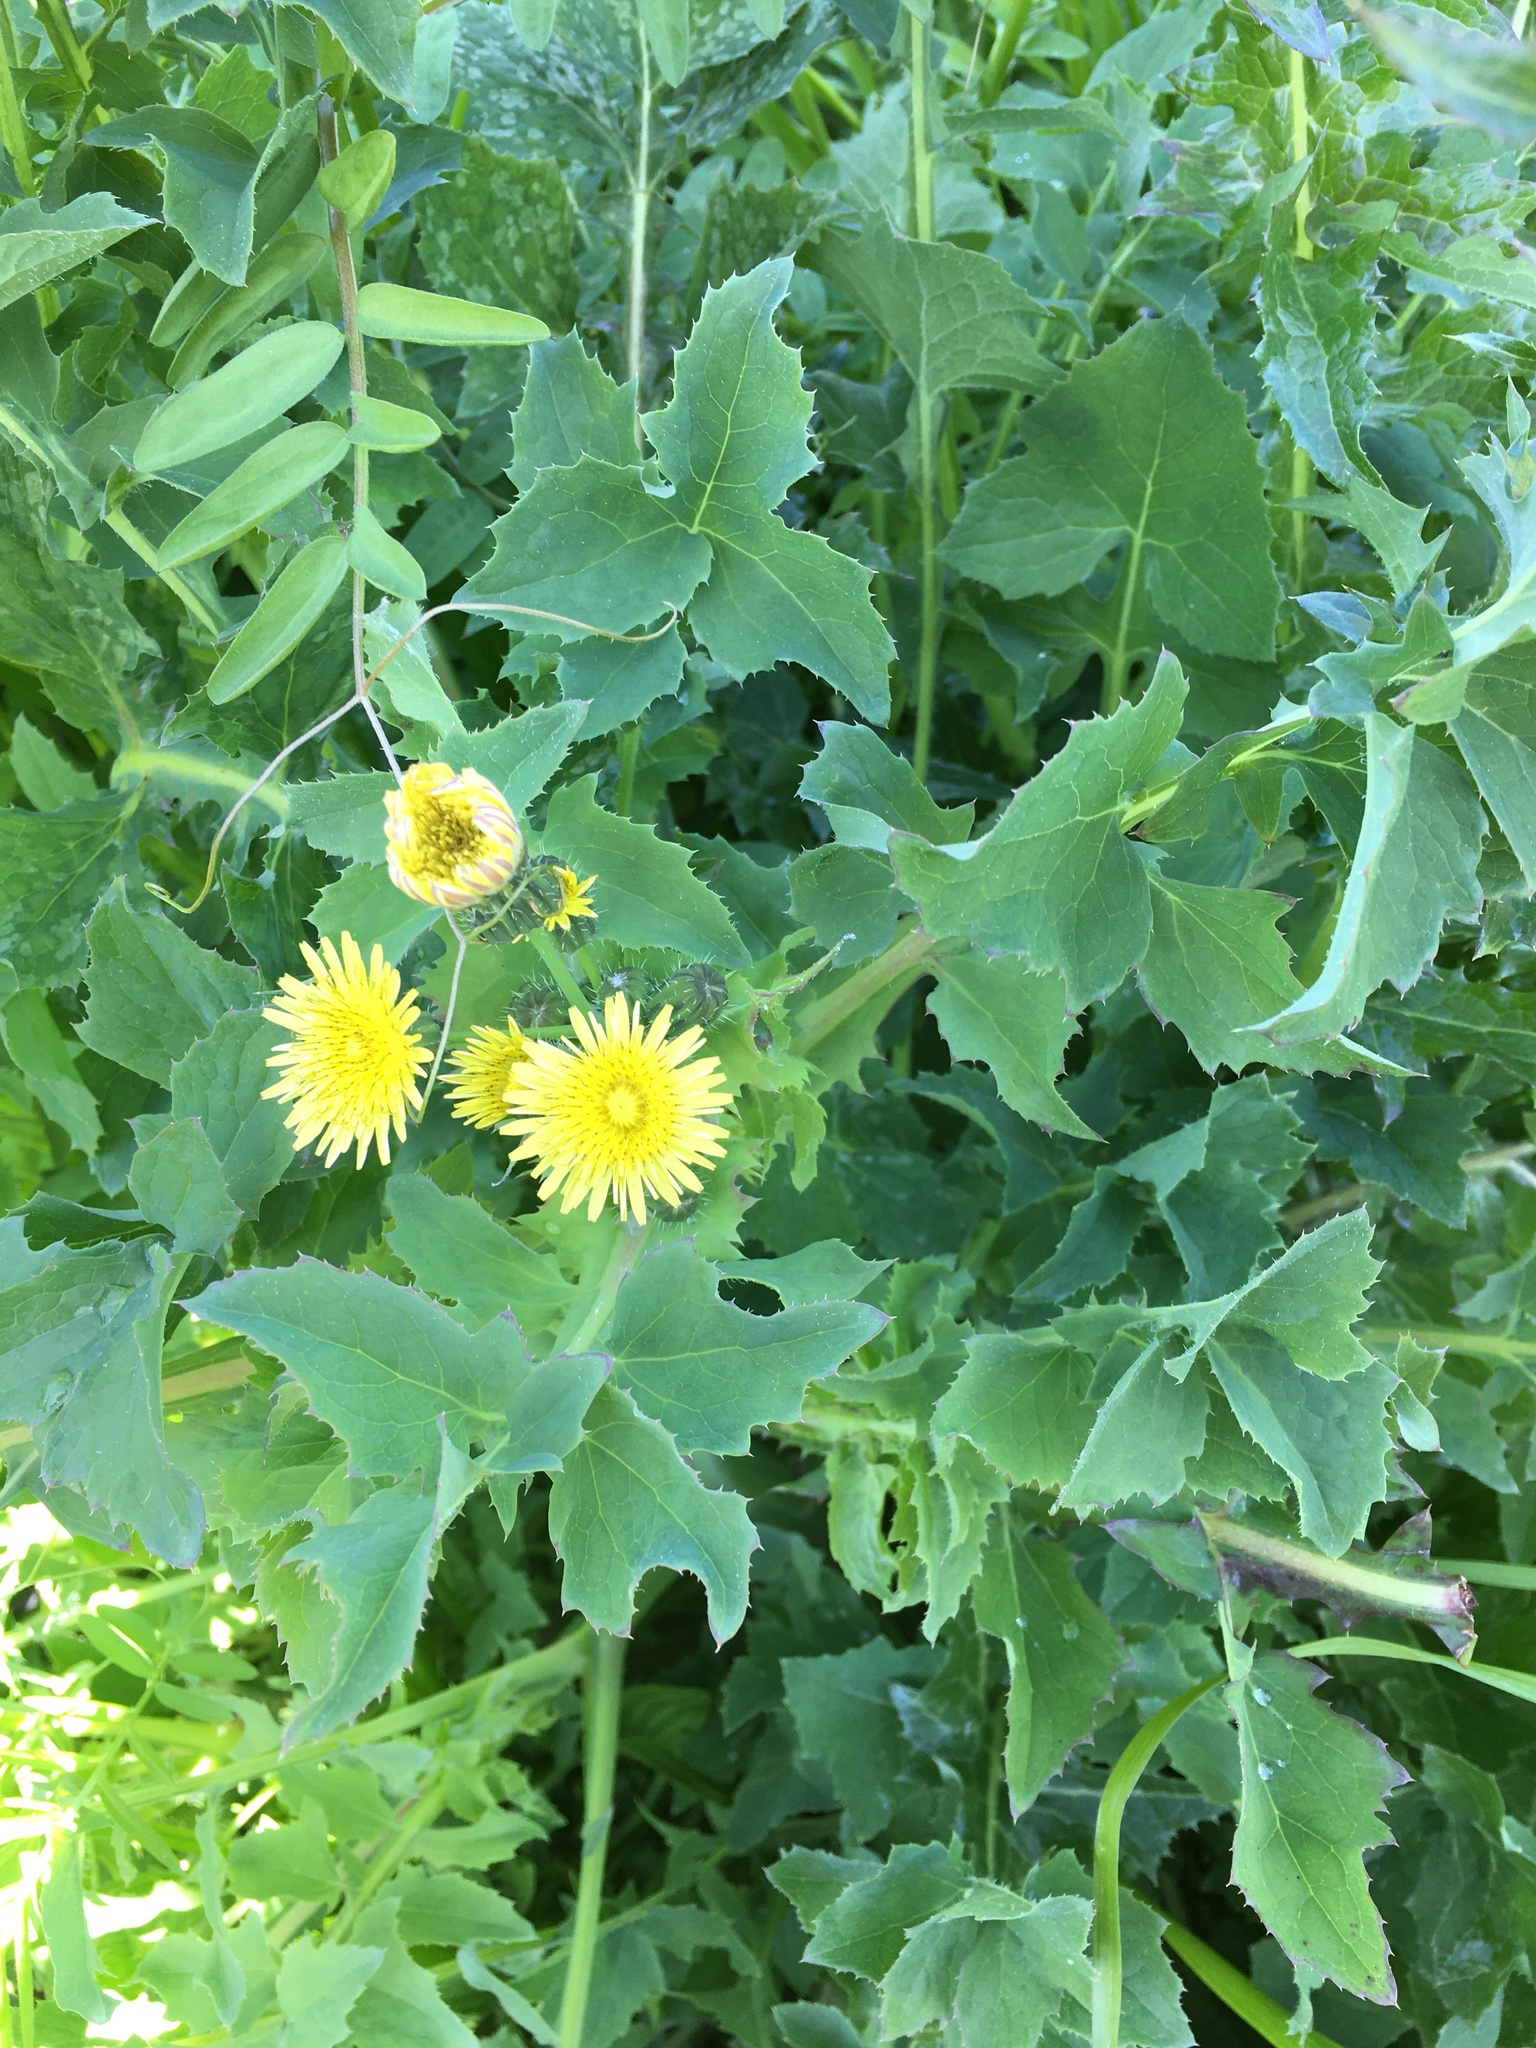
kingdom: Plantae
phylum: Tracheophyta
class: Magnoliopsida
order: Asterales
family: Asteraceae
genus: Sonchus
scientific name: Sonchus oleraceus
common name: Common sowthistle
